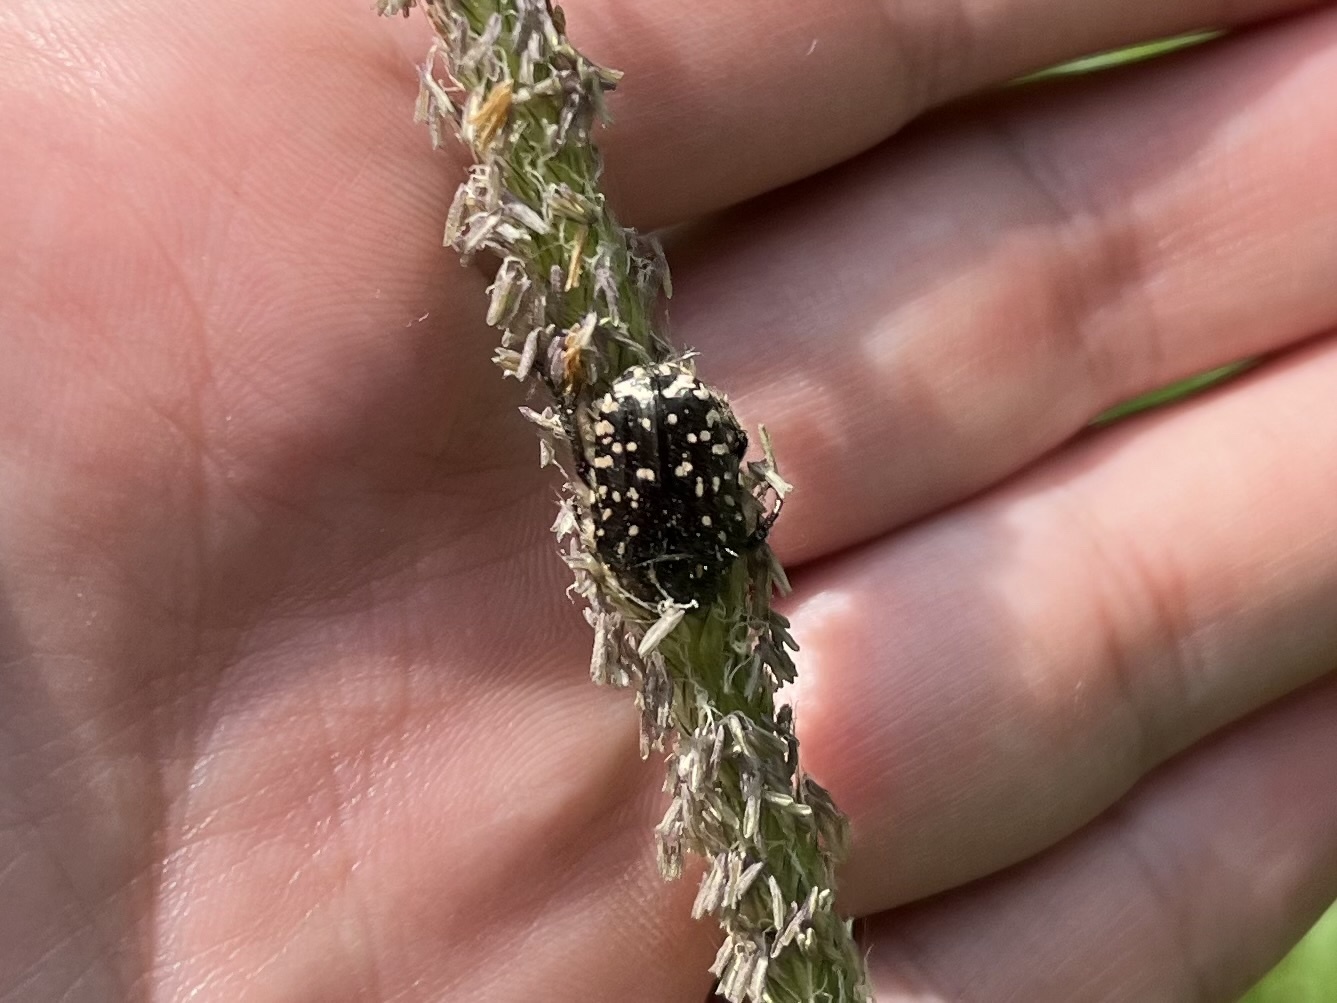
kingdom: Animalia
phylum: Arthropoda
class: Insecta
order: Coleoptera
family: Scarabaeidae
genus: Oxythyrea
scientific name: Oxythyrea funesta
